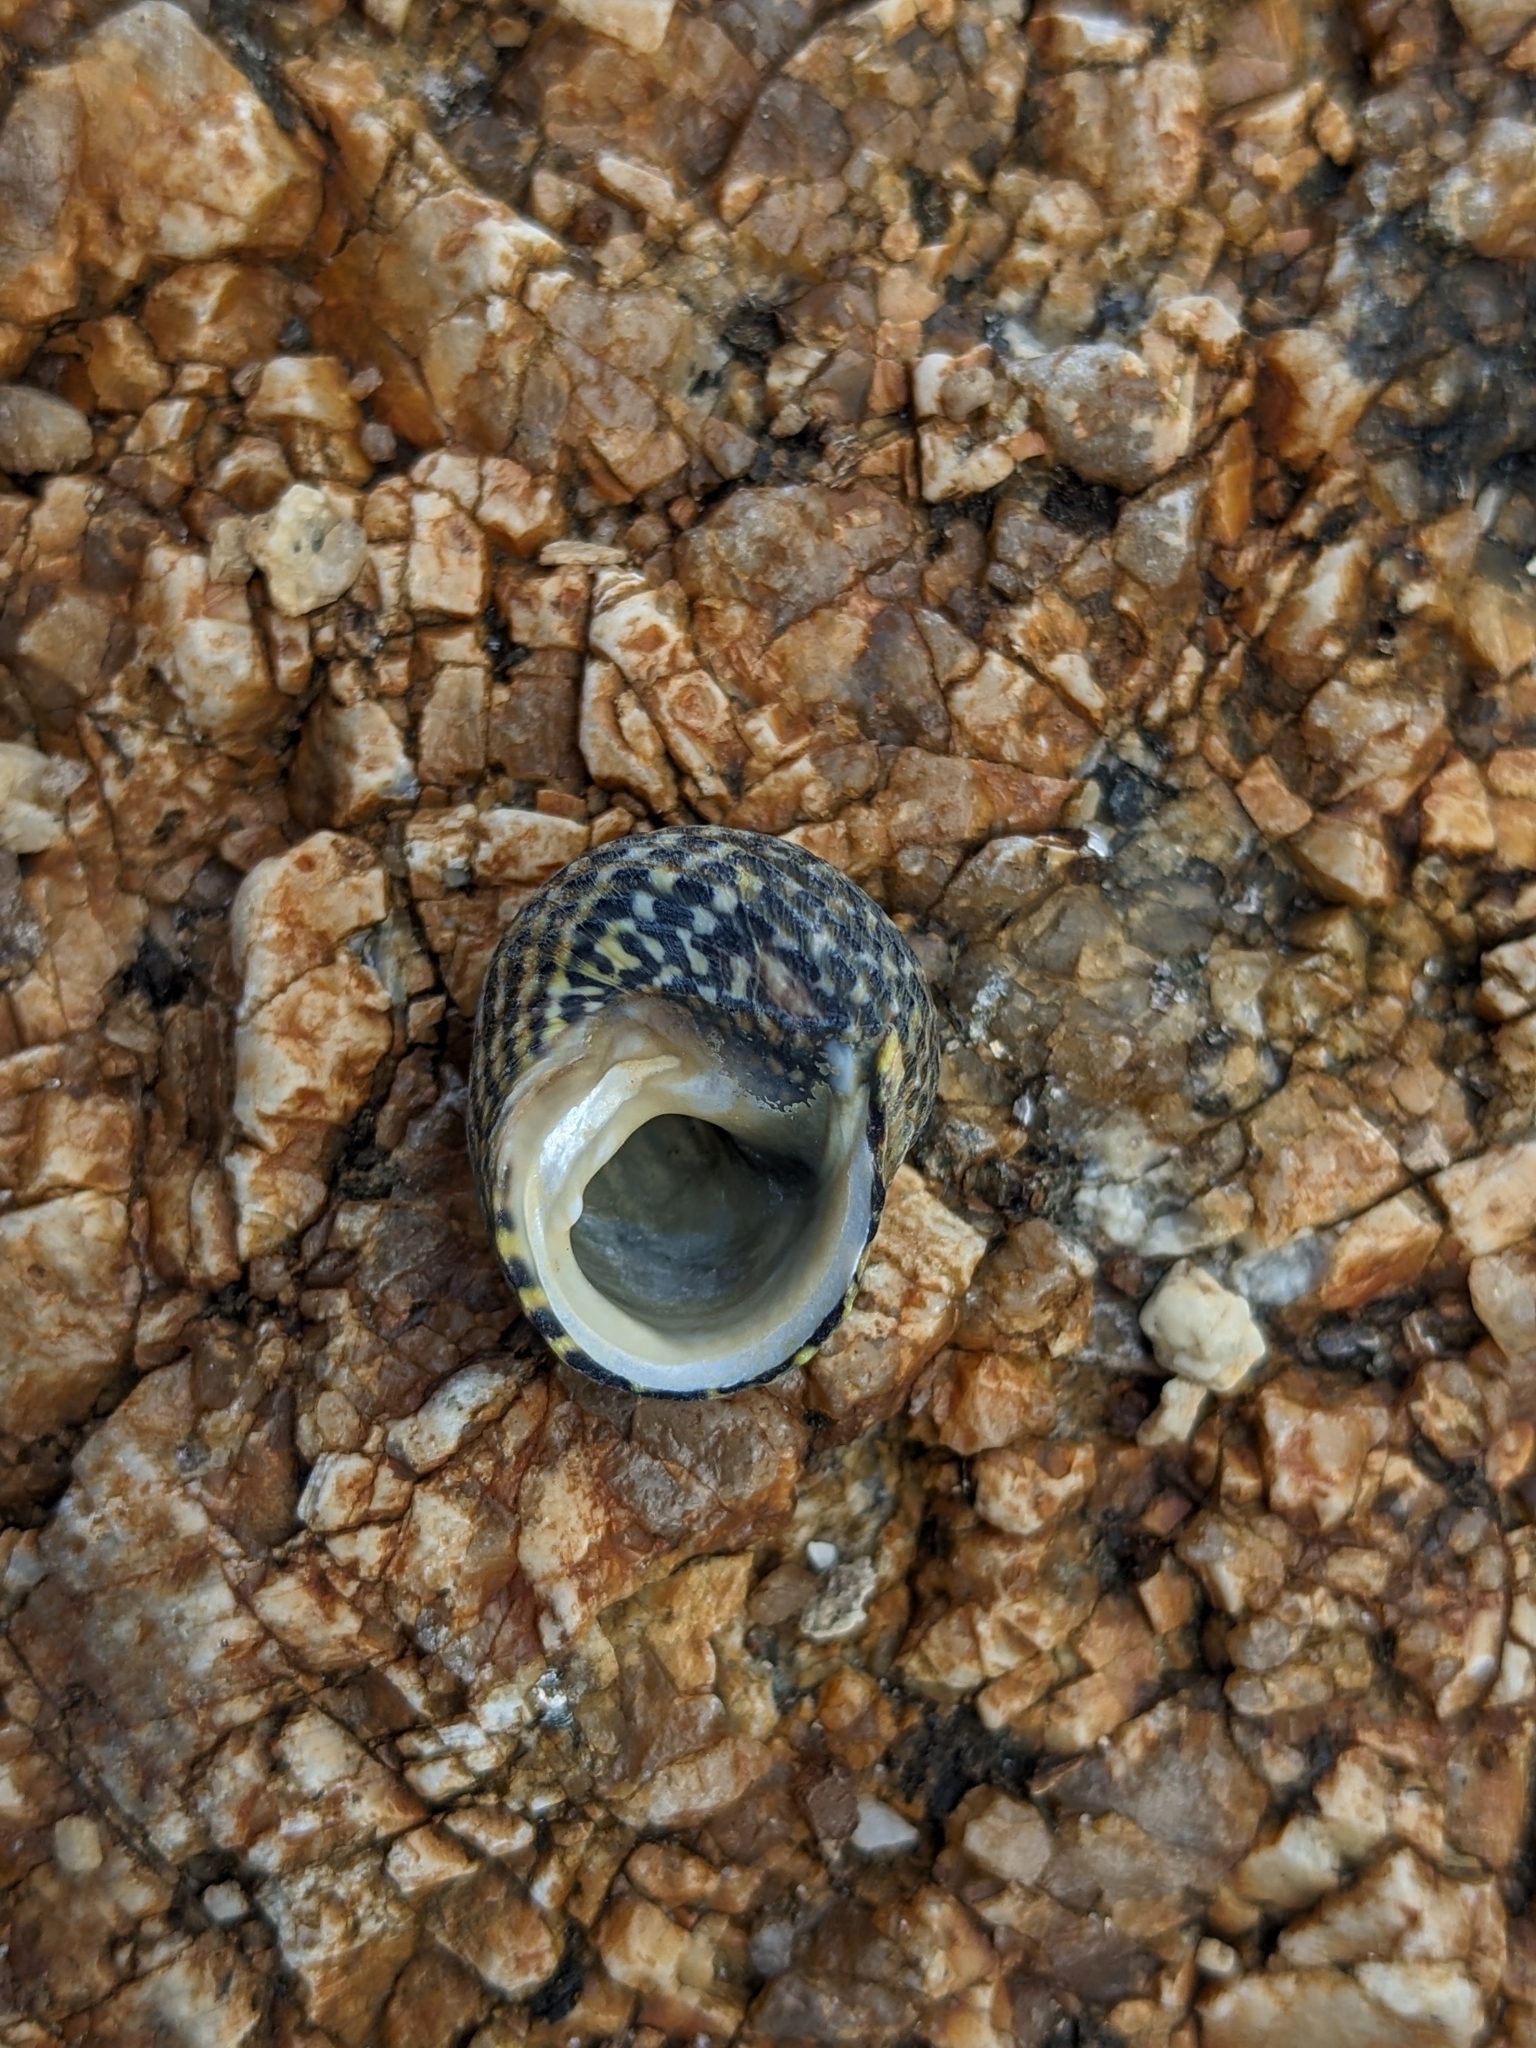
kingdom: Animalia
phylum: Mollusca
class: Gastropoda
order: Trochida
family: Trochidae
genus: Diloma
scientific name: Diloma concameratum
